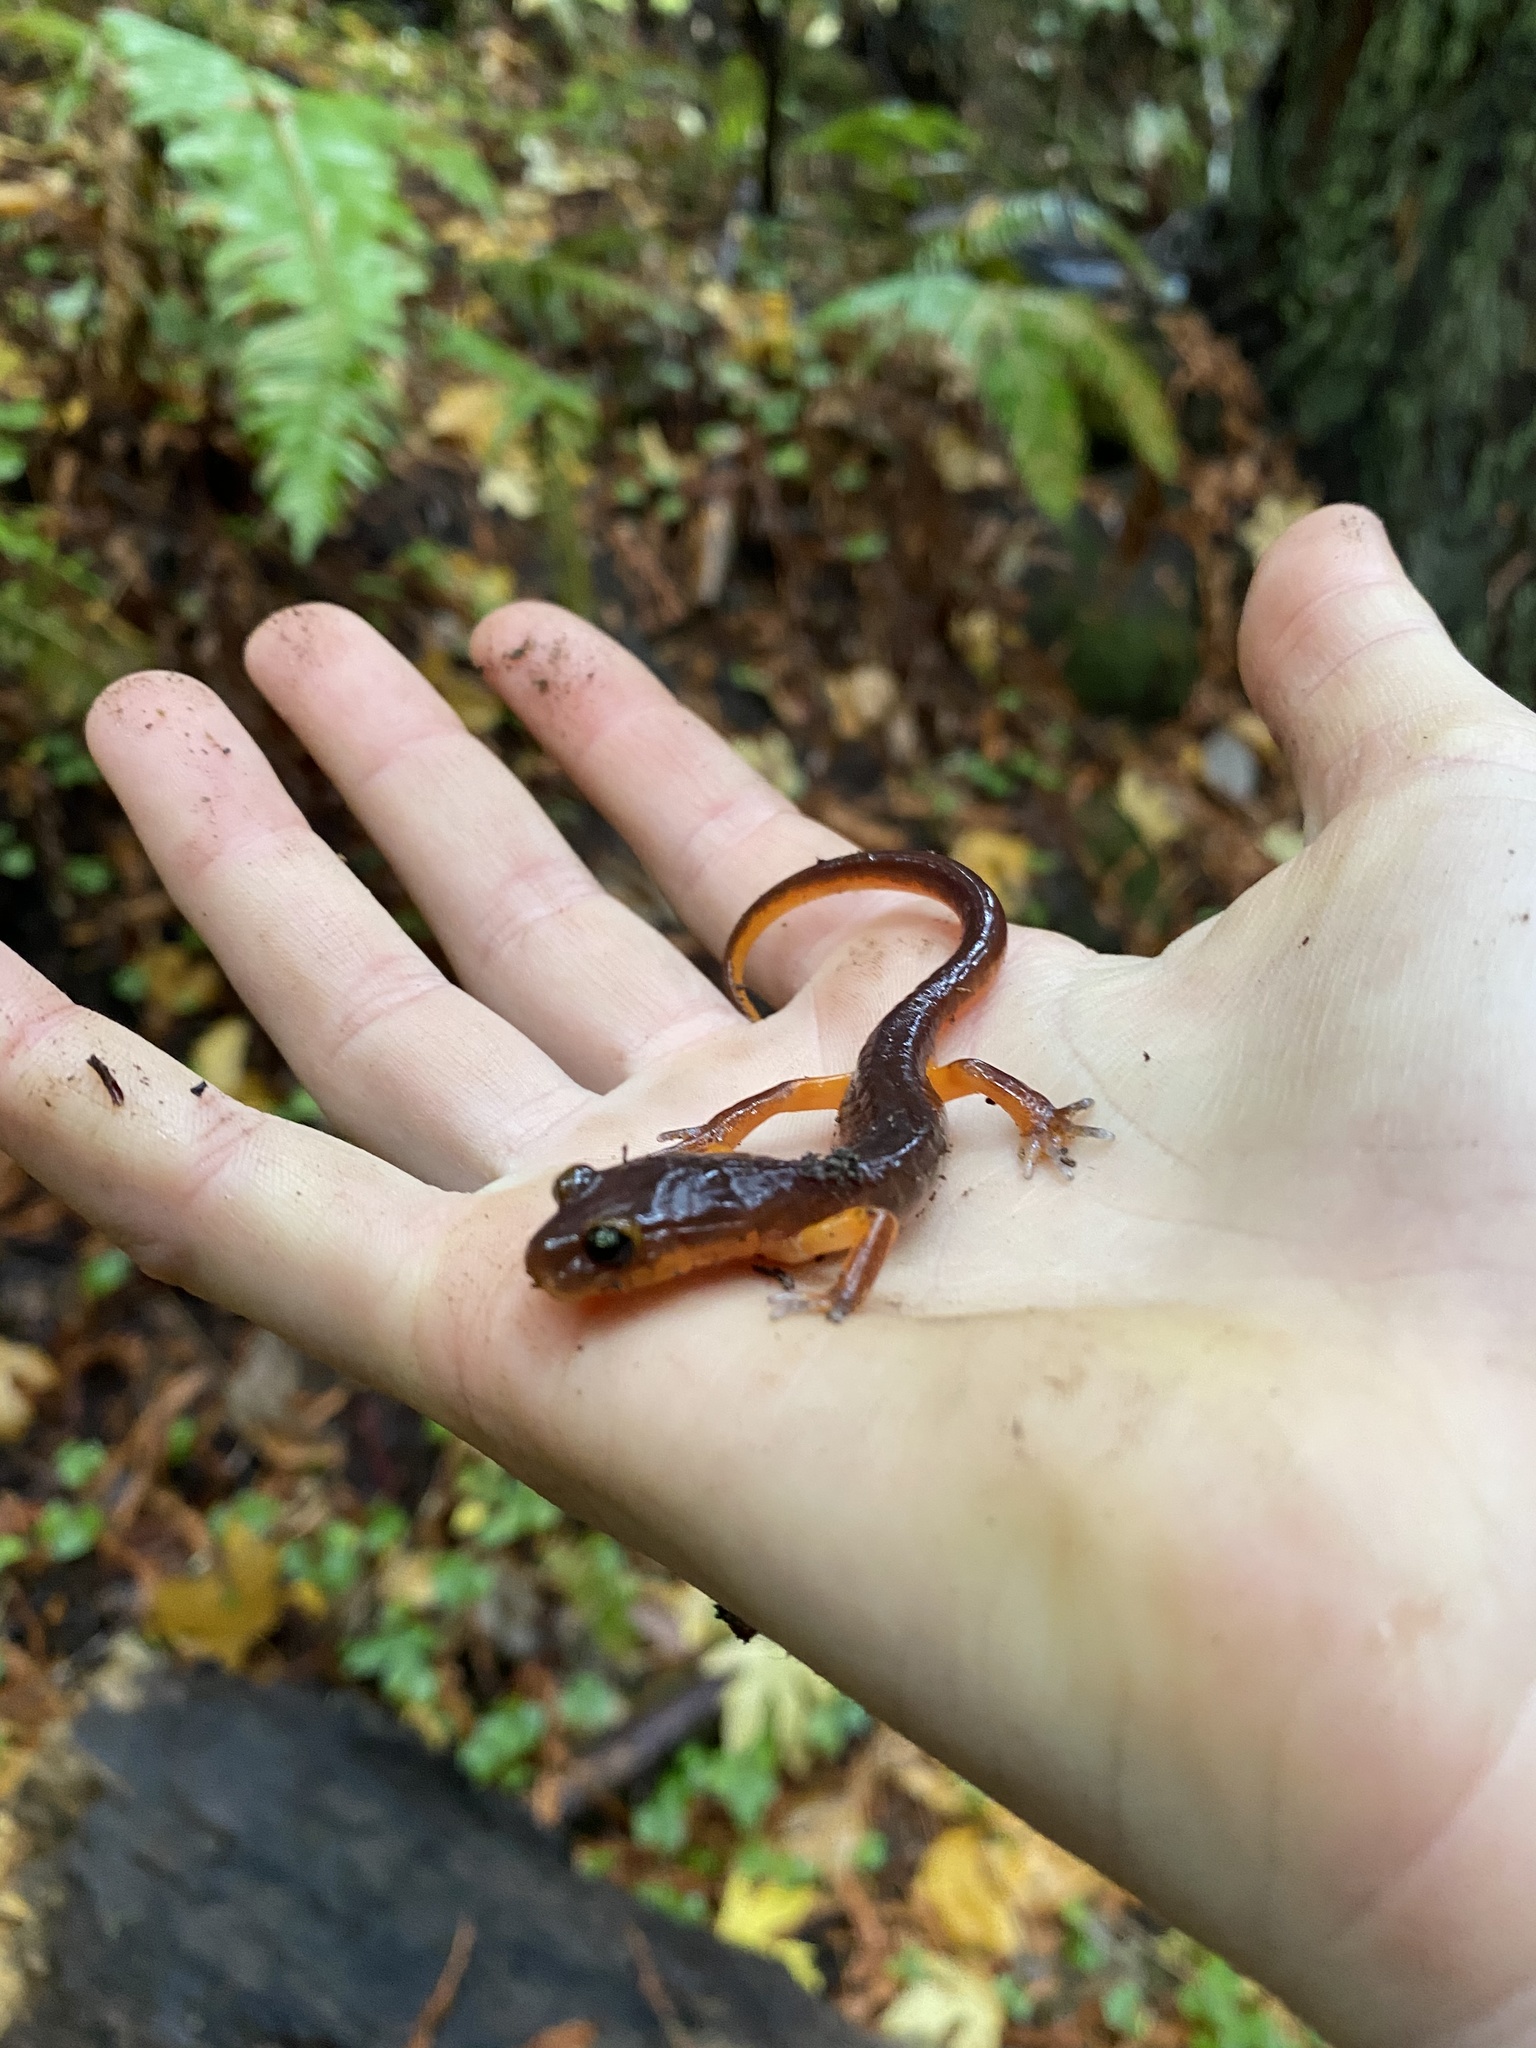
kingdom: Animalia
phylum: Chordata
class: Amphibia
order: Caudata
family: Plethodontidae
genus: Ensatina
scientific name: Ensatina eschscholtzii
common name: Ensatina
